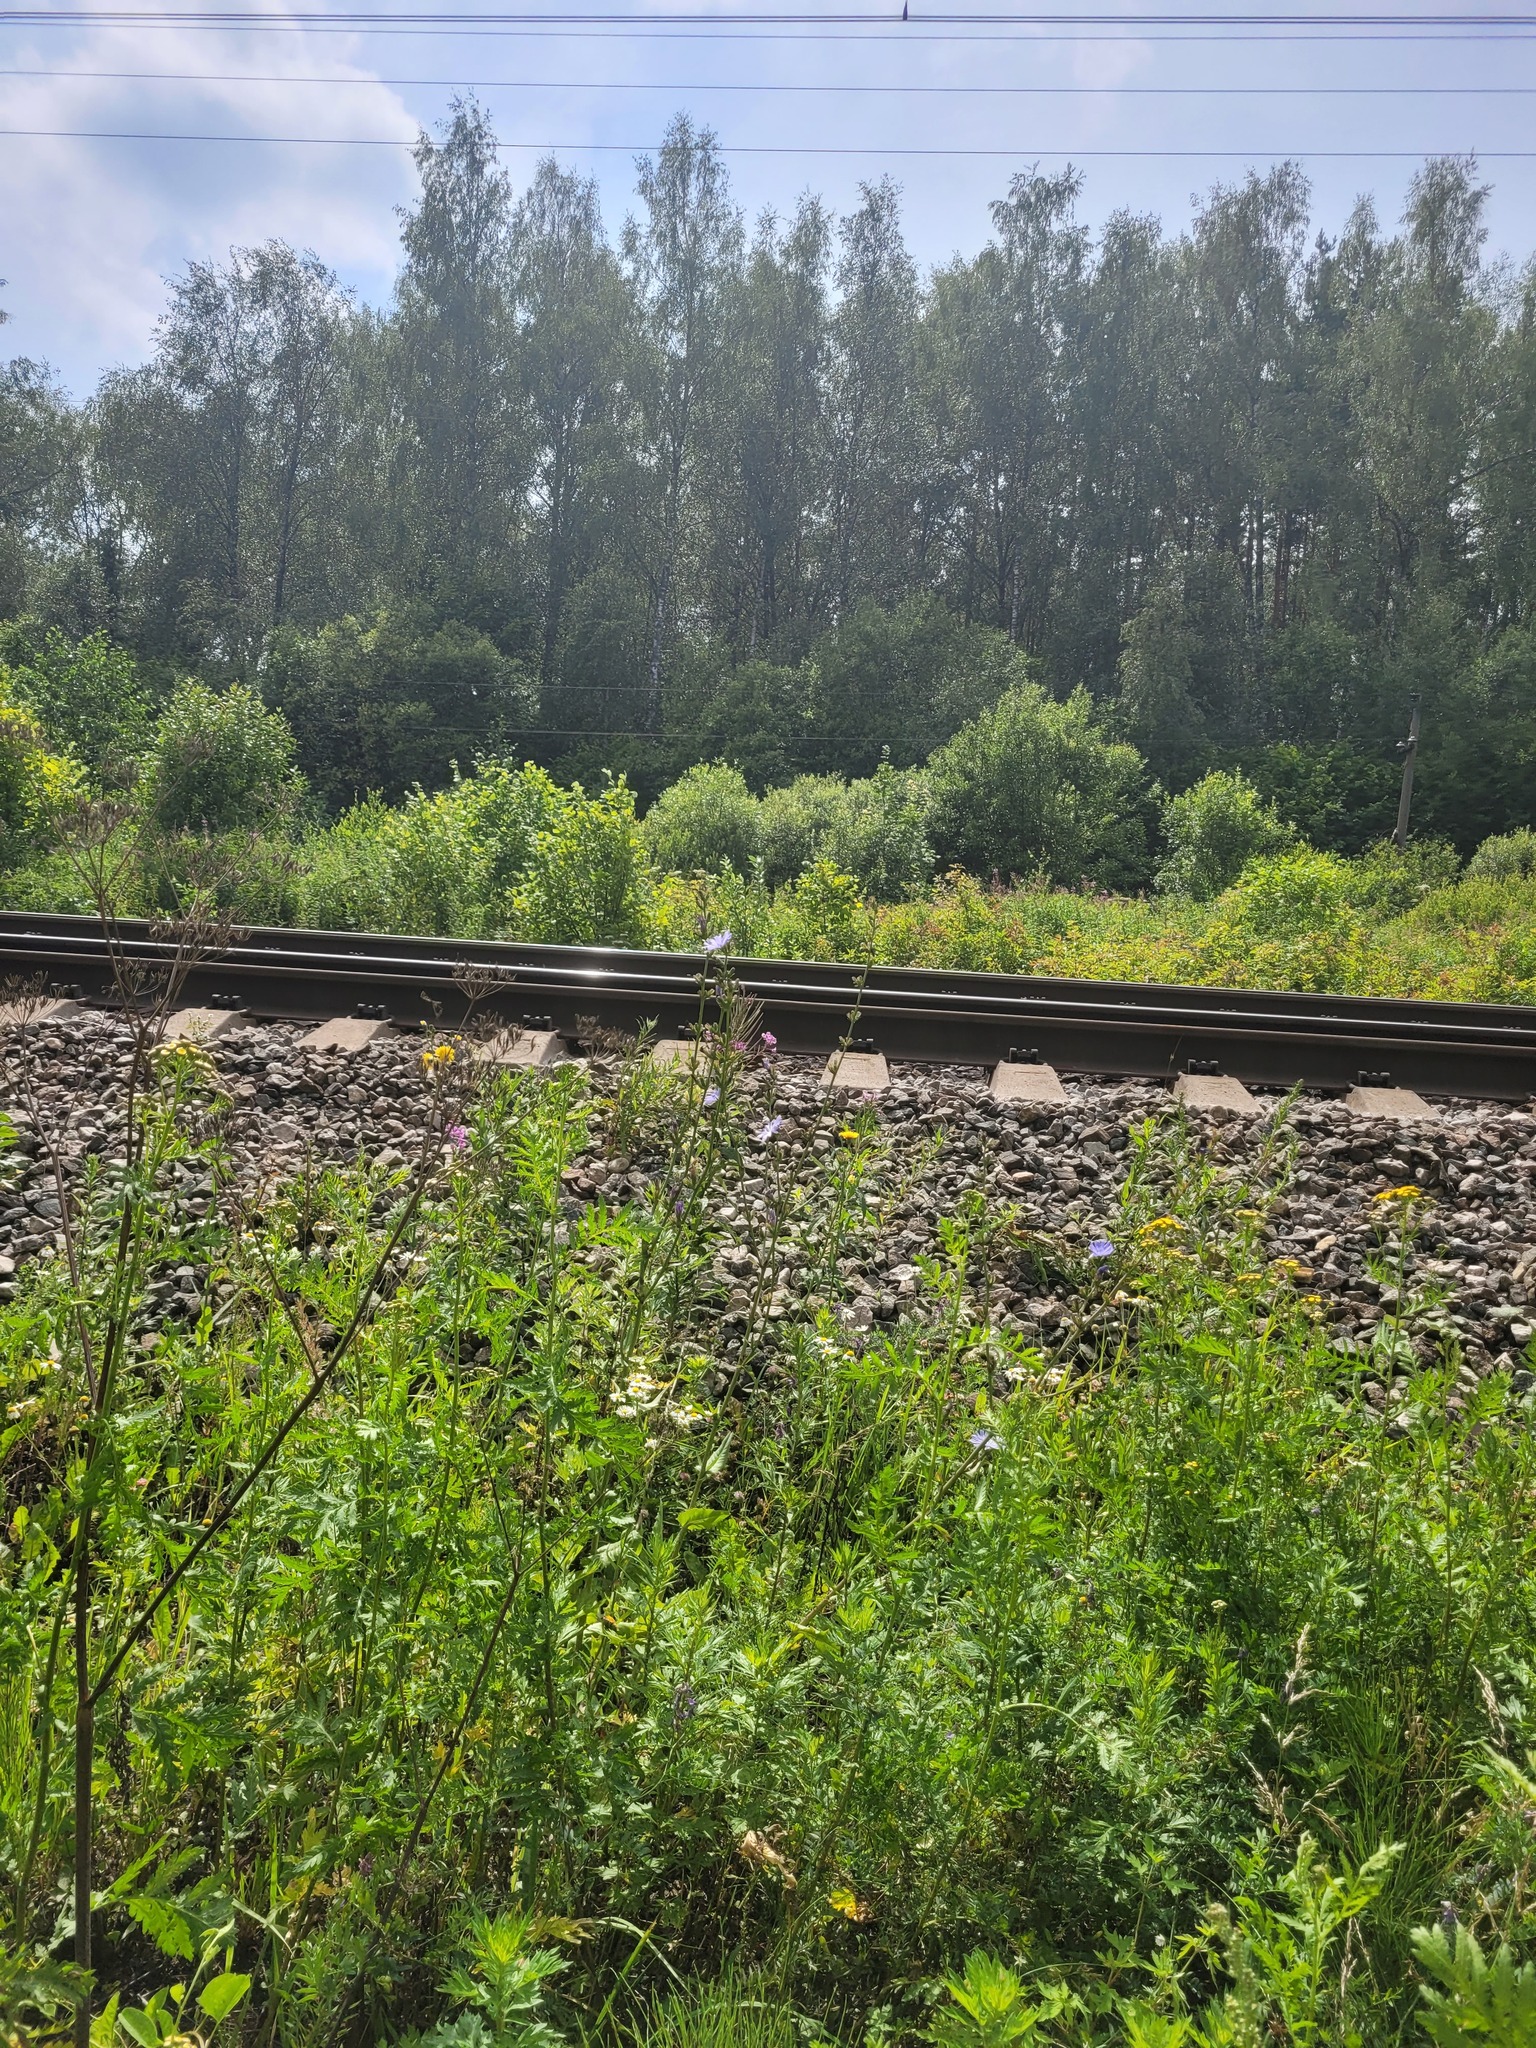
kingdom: Plantae
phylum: Tracheophyta
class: Magnoliopsida
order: Asterales
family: Asteraceae
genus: Cichorium
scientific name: Cichorium intybus
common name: Chicory
